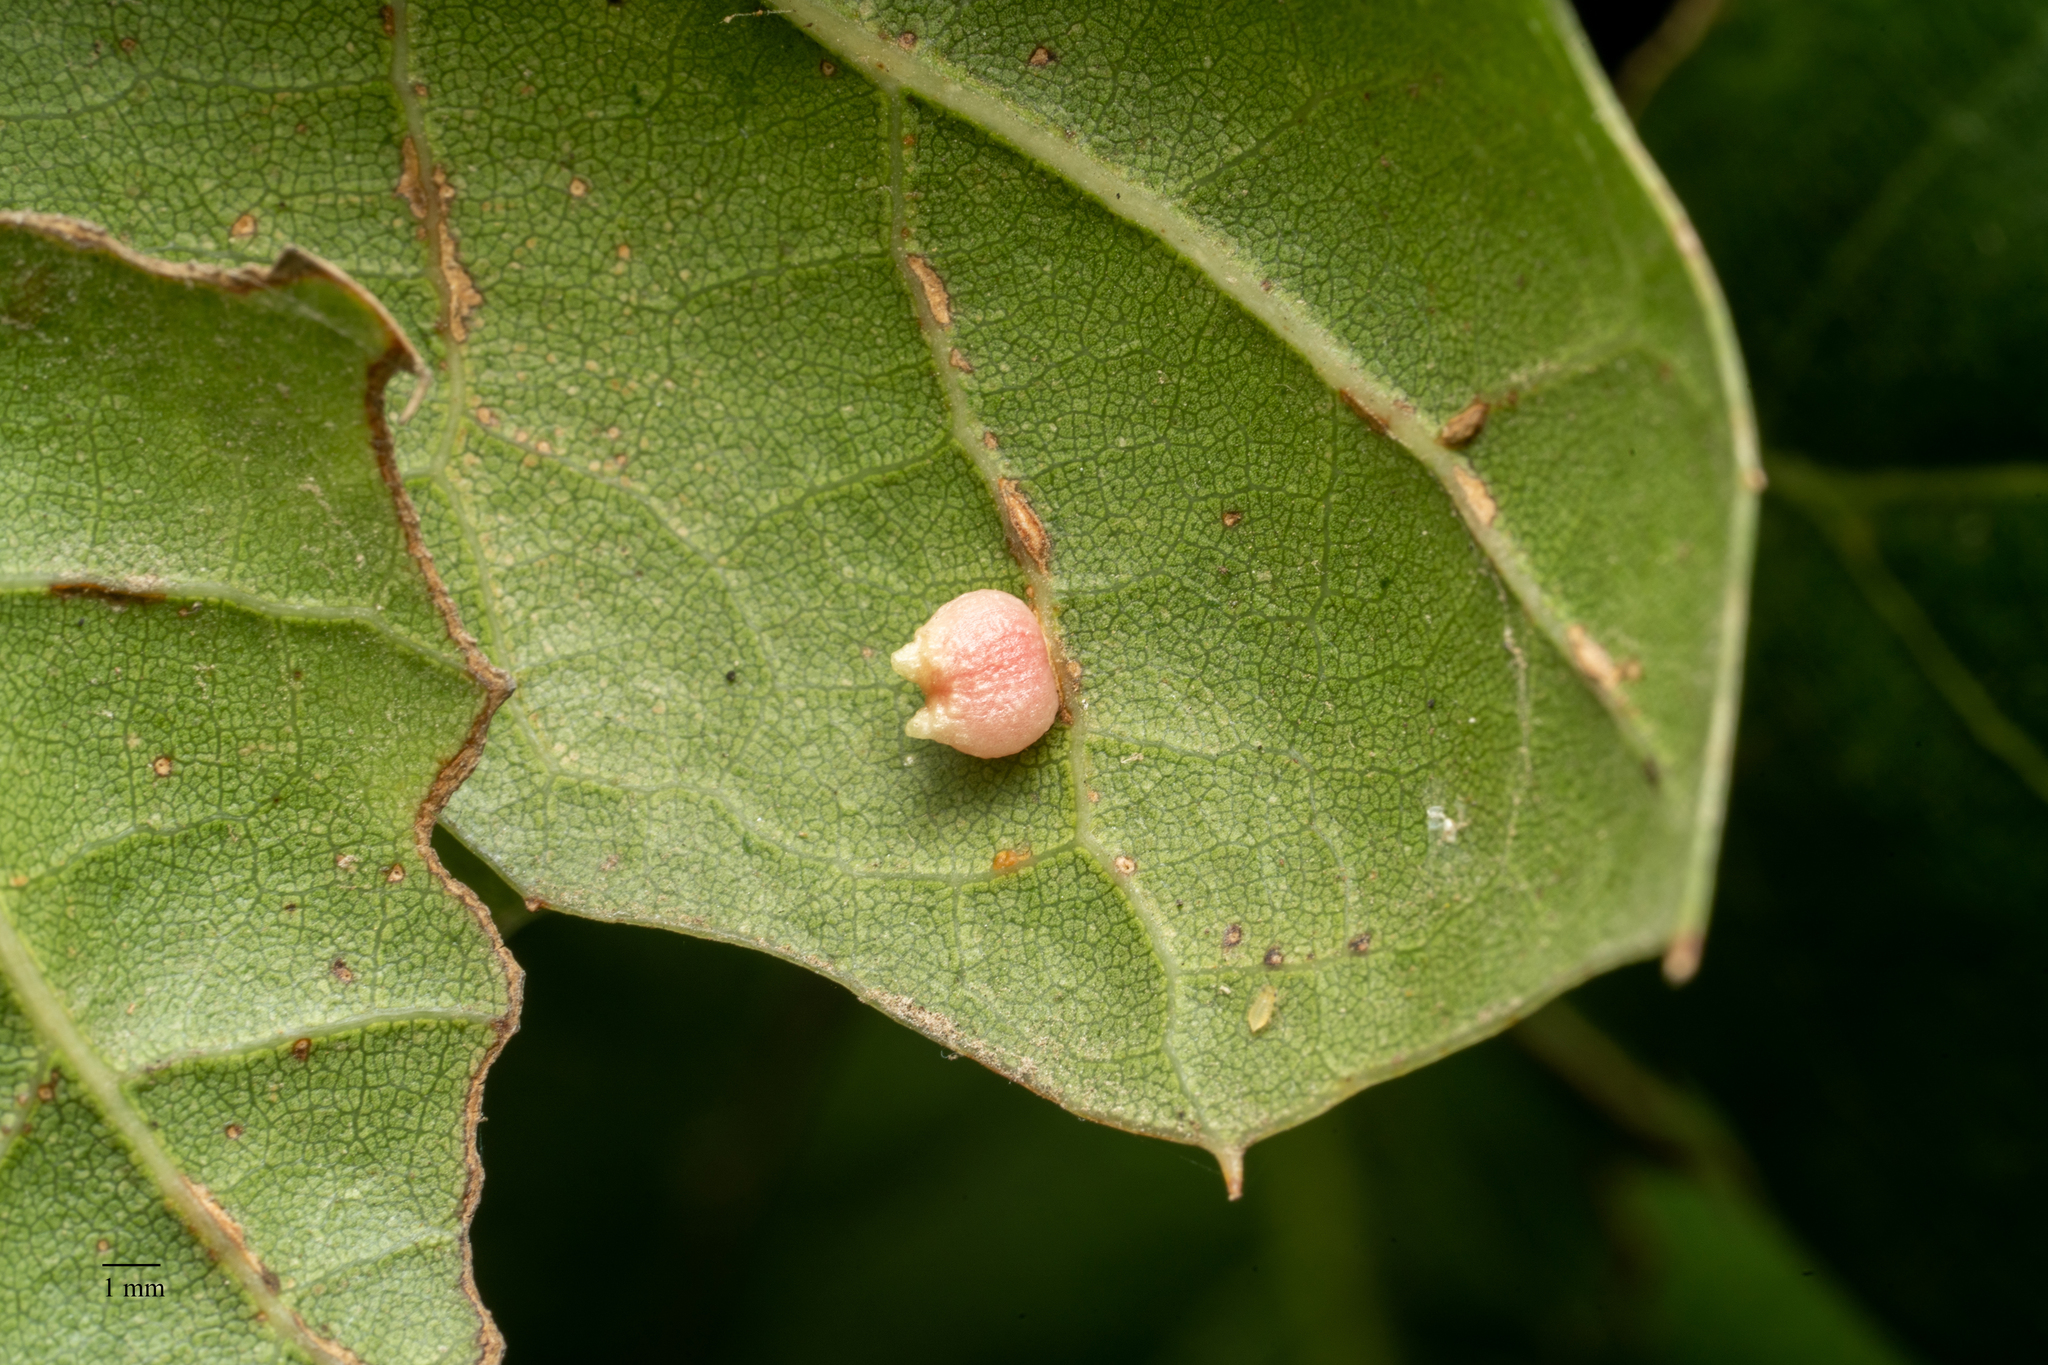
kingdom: Animalia
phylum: Arthropoda
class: Insecta
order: Hymenoptera
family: Cynipidae
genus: Dryocosmus
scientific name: Dryocosmus
